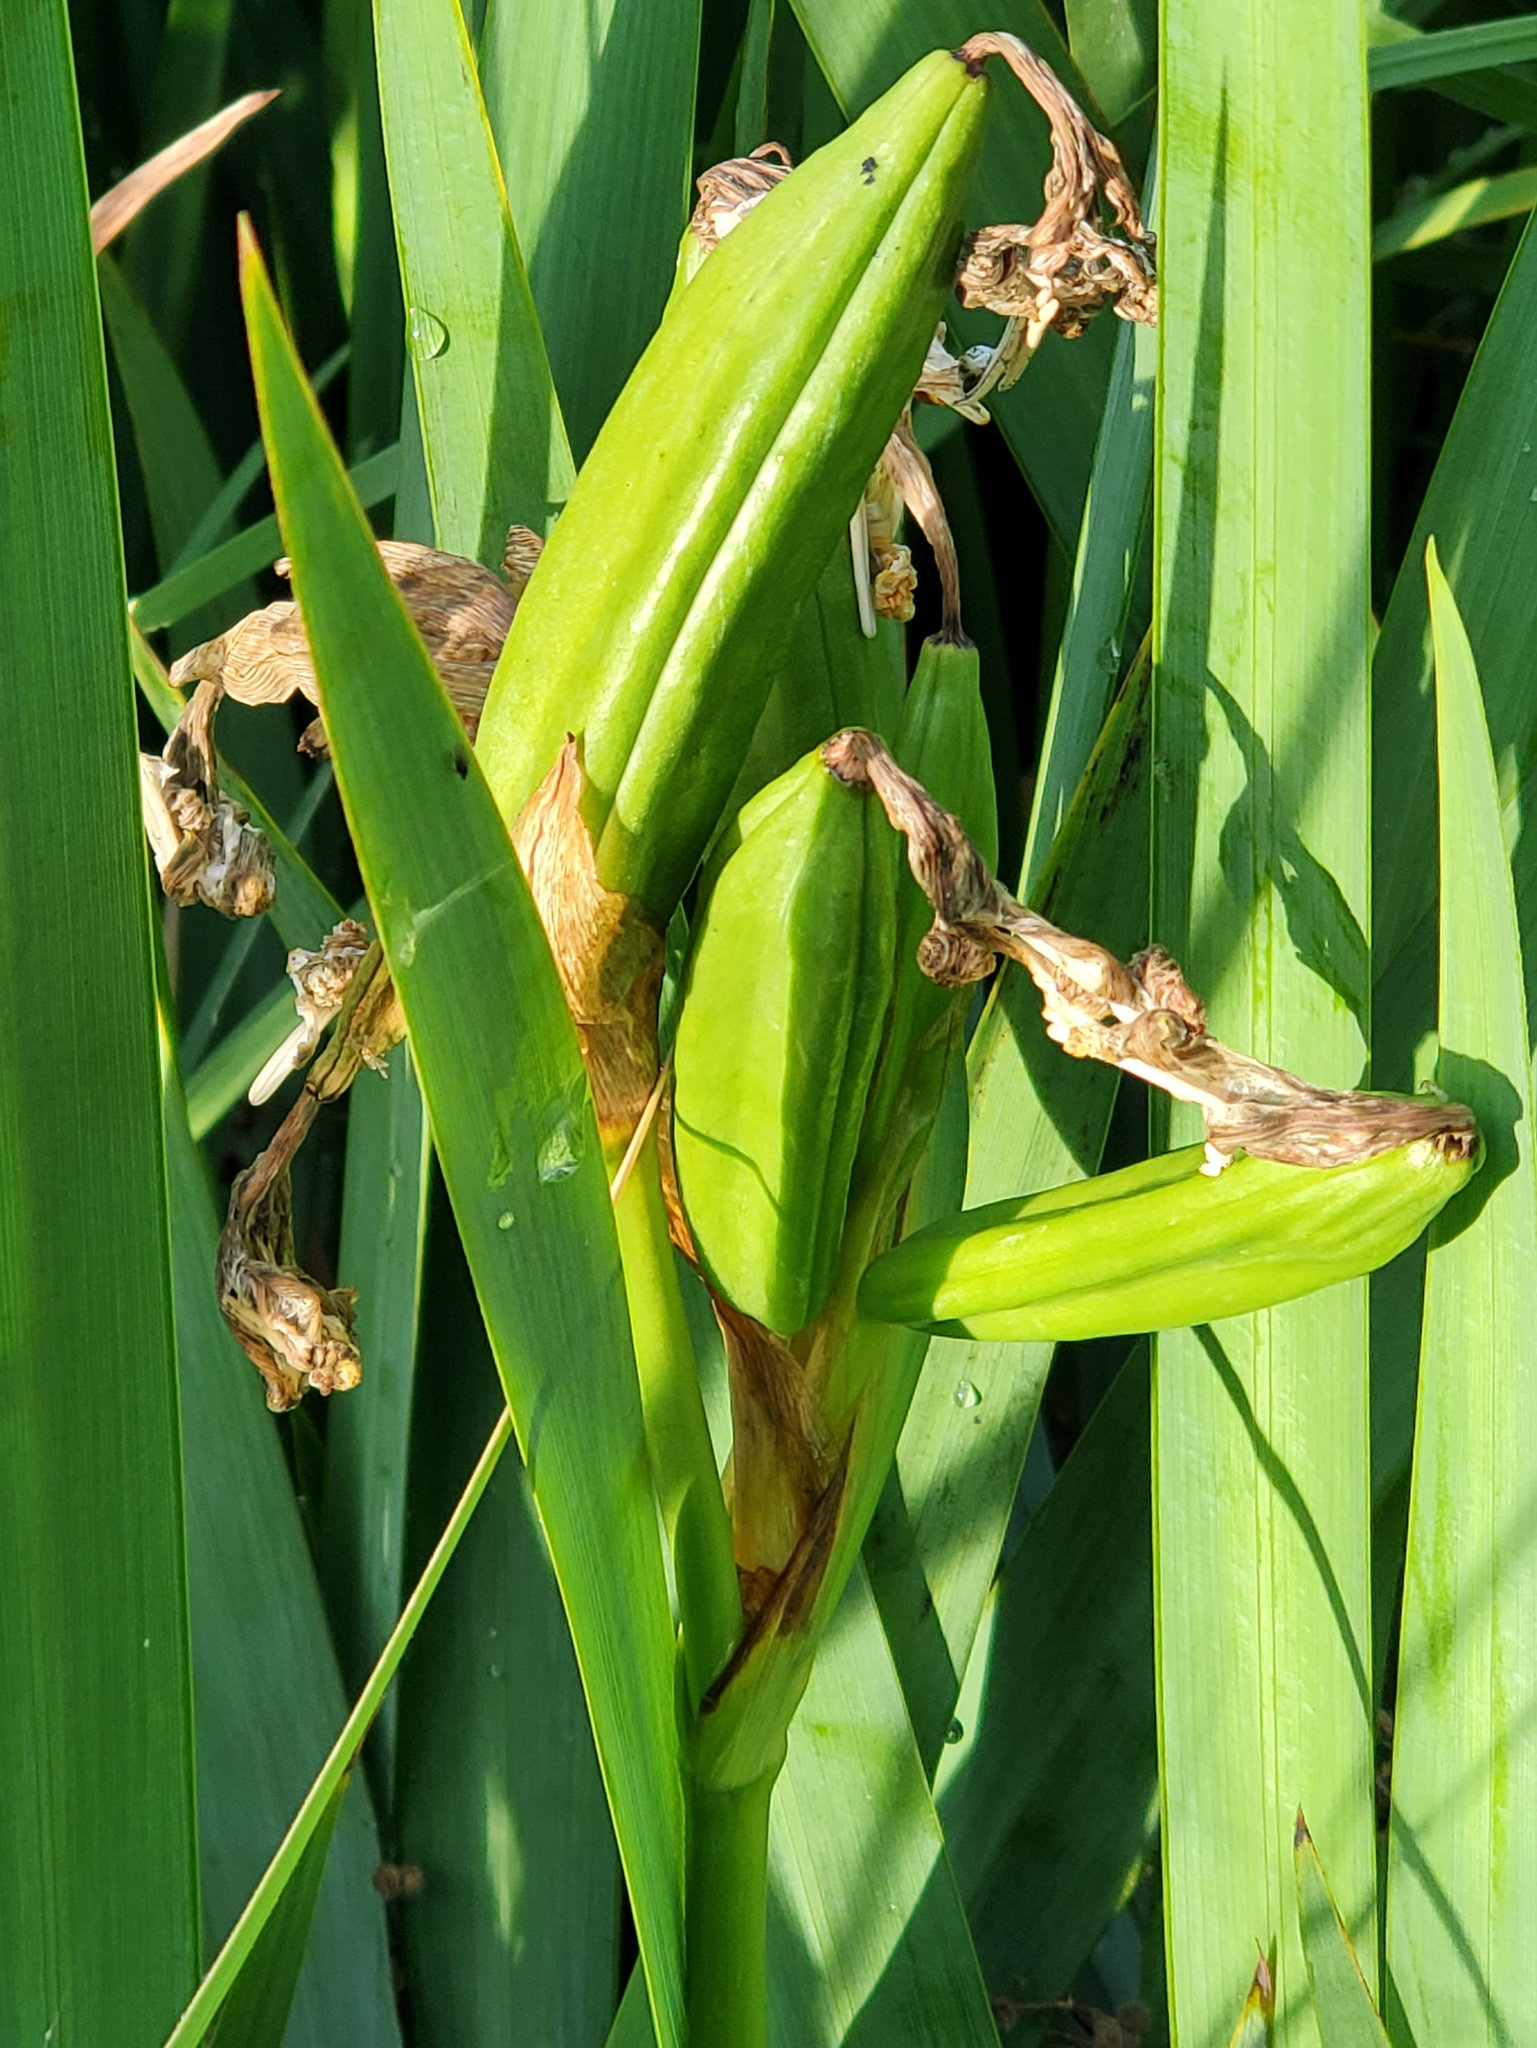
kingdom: Plantae
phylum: Tracheophyta
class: Liliopsida
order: Asparagales
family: Iridaceae
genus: Iris
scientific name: Iris pseudacorus
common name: Yellow flag
